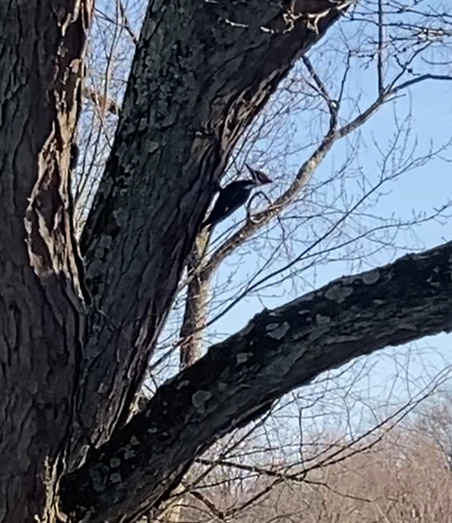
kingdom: Animalia
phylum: Chordata
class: Aves
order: Piciformes
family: Picidae
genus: Dryocopus
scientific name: Dryocopus pileatus
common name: Pileated woodpecker
